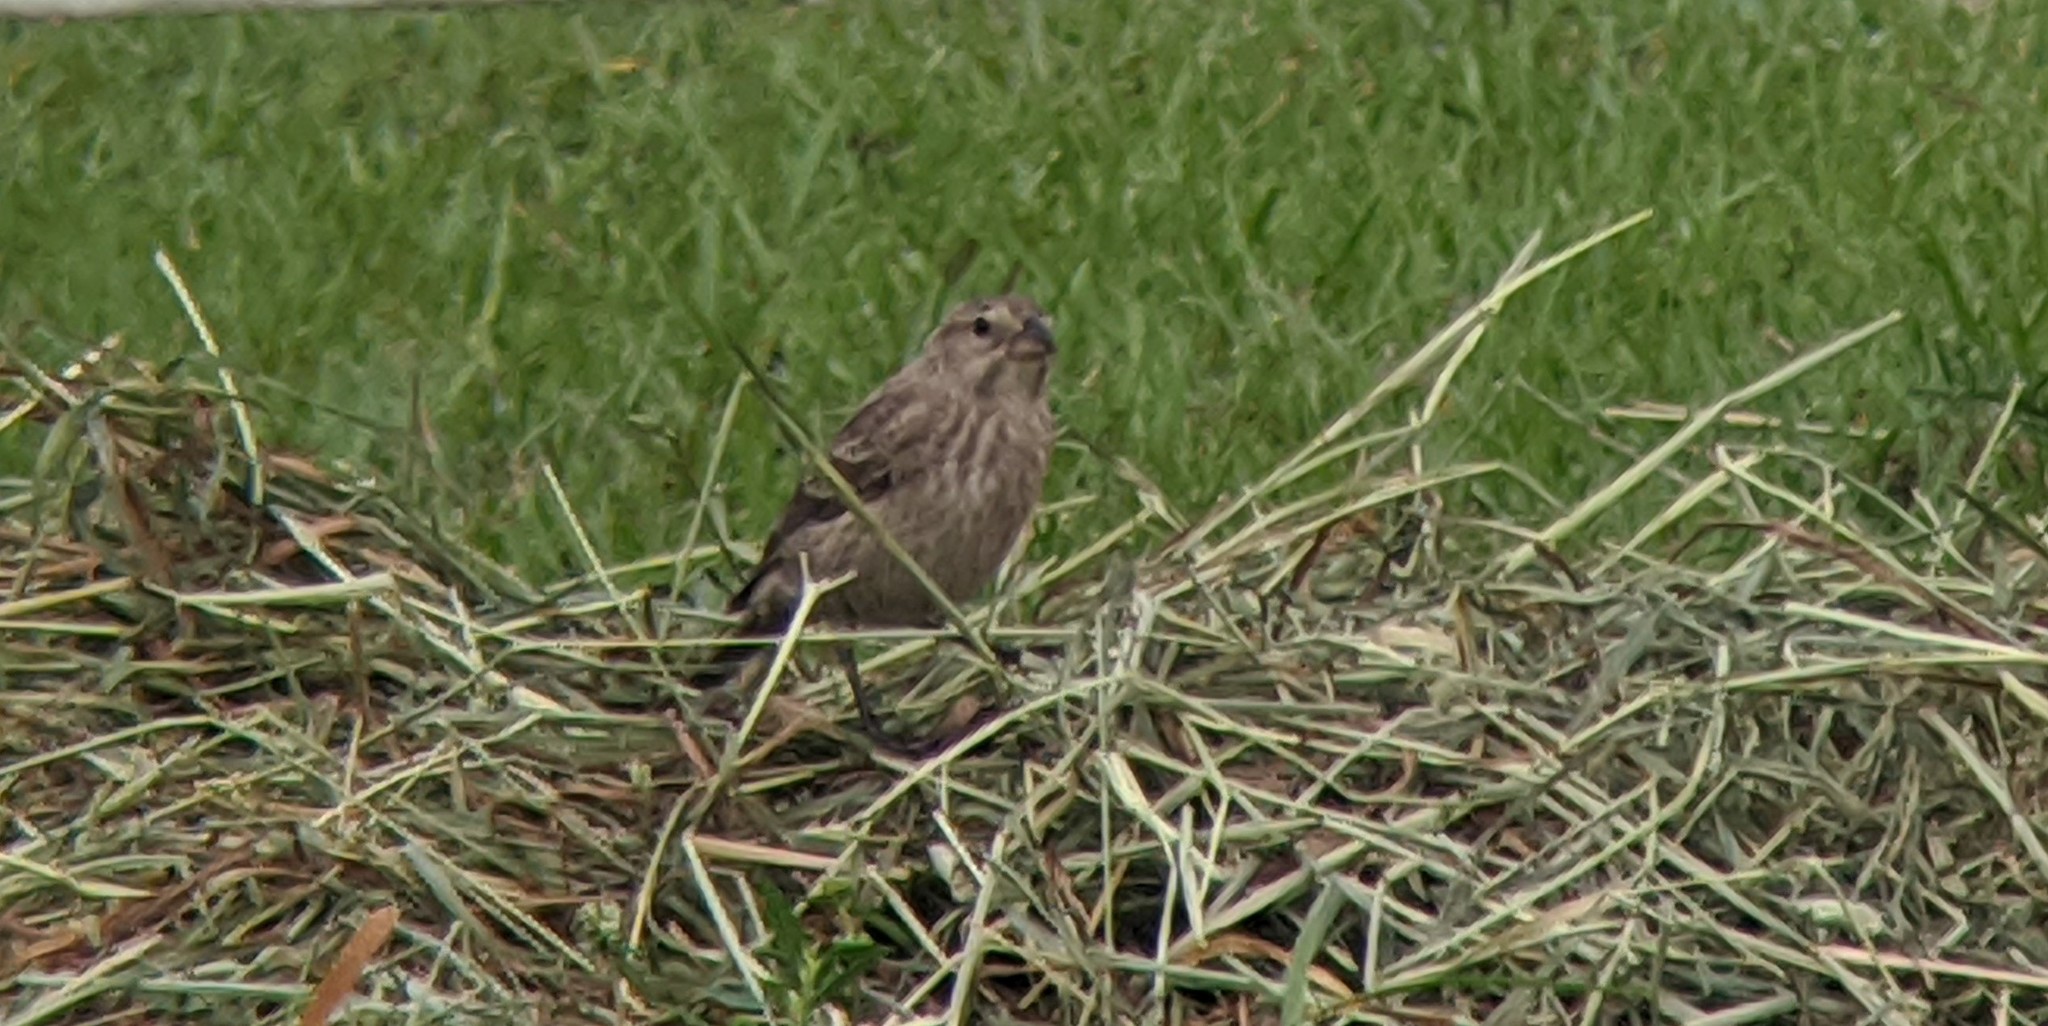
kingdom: Animalia
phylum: Chordata
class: Aves
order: Passeriformes
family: Icteridae
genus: Molothrus
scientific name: Molothrus ater
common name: Brown-headed cowbird
